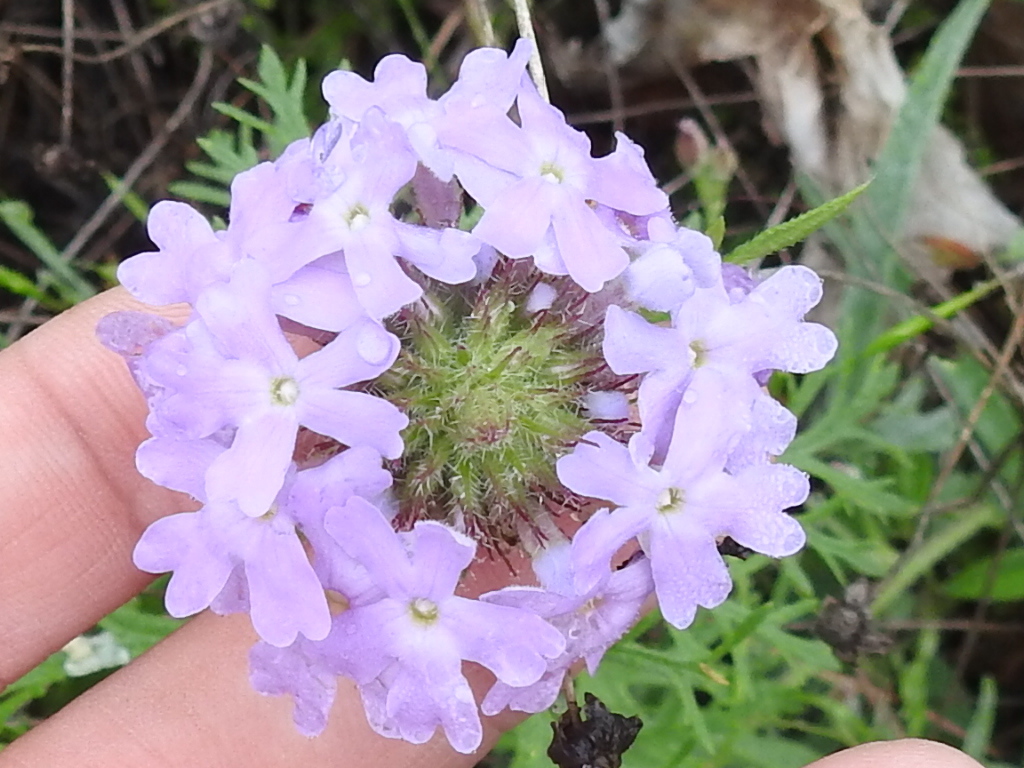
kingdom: Plantae
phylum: Tracheophyta
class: Magnoliopsida
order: Lamiales
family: Verbenaceae
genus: Verbena
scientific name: Verbena bipinnatifida
